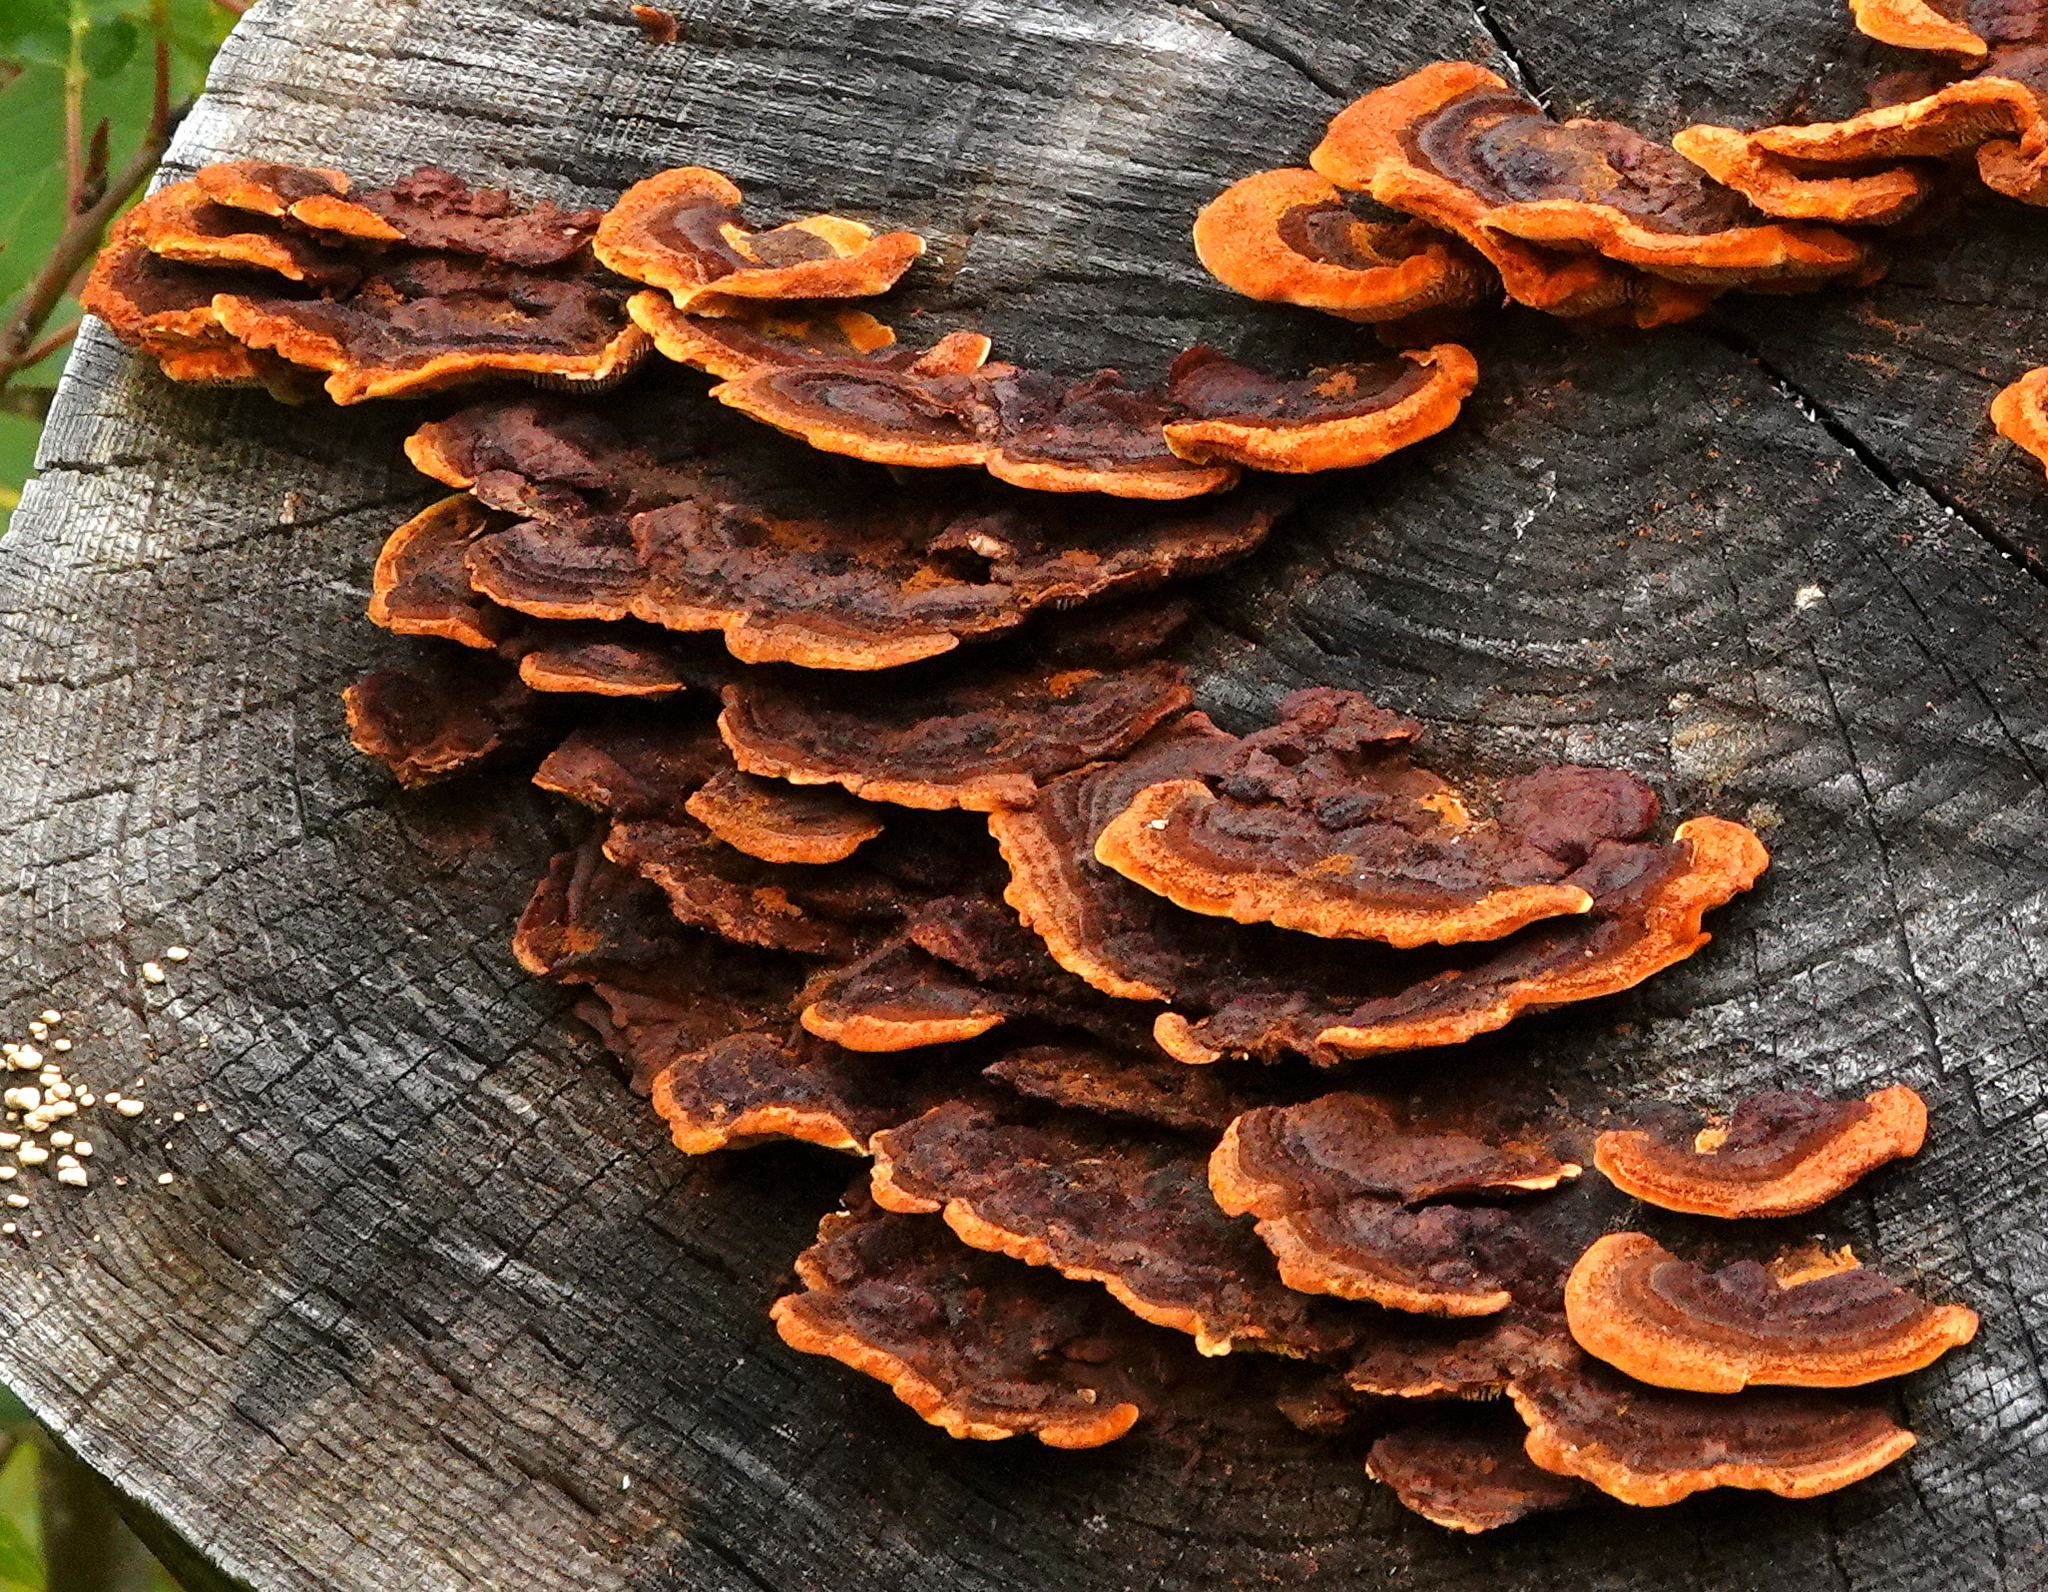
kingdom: Fungi
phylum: Basidiomycota
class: Agaricomycetes
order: Gloeophyllales
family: Gloeophyllaceae
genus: Gloeophyllum
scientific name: Gloeophyllum sepiarium
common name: Conifer mazegill
